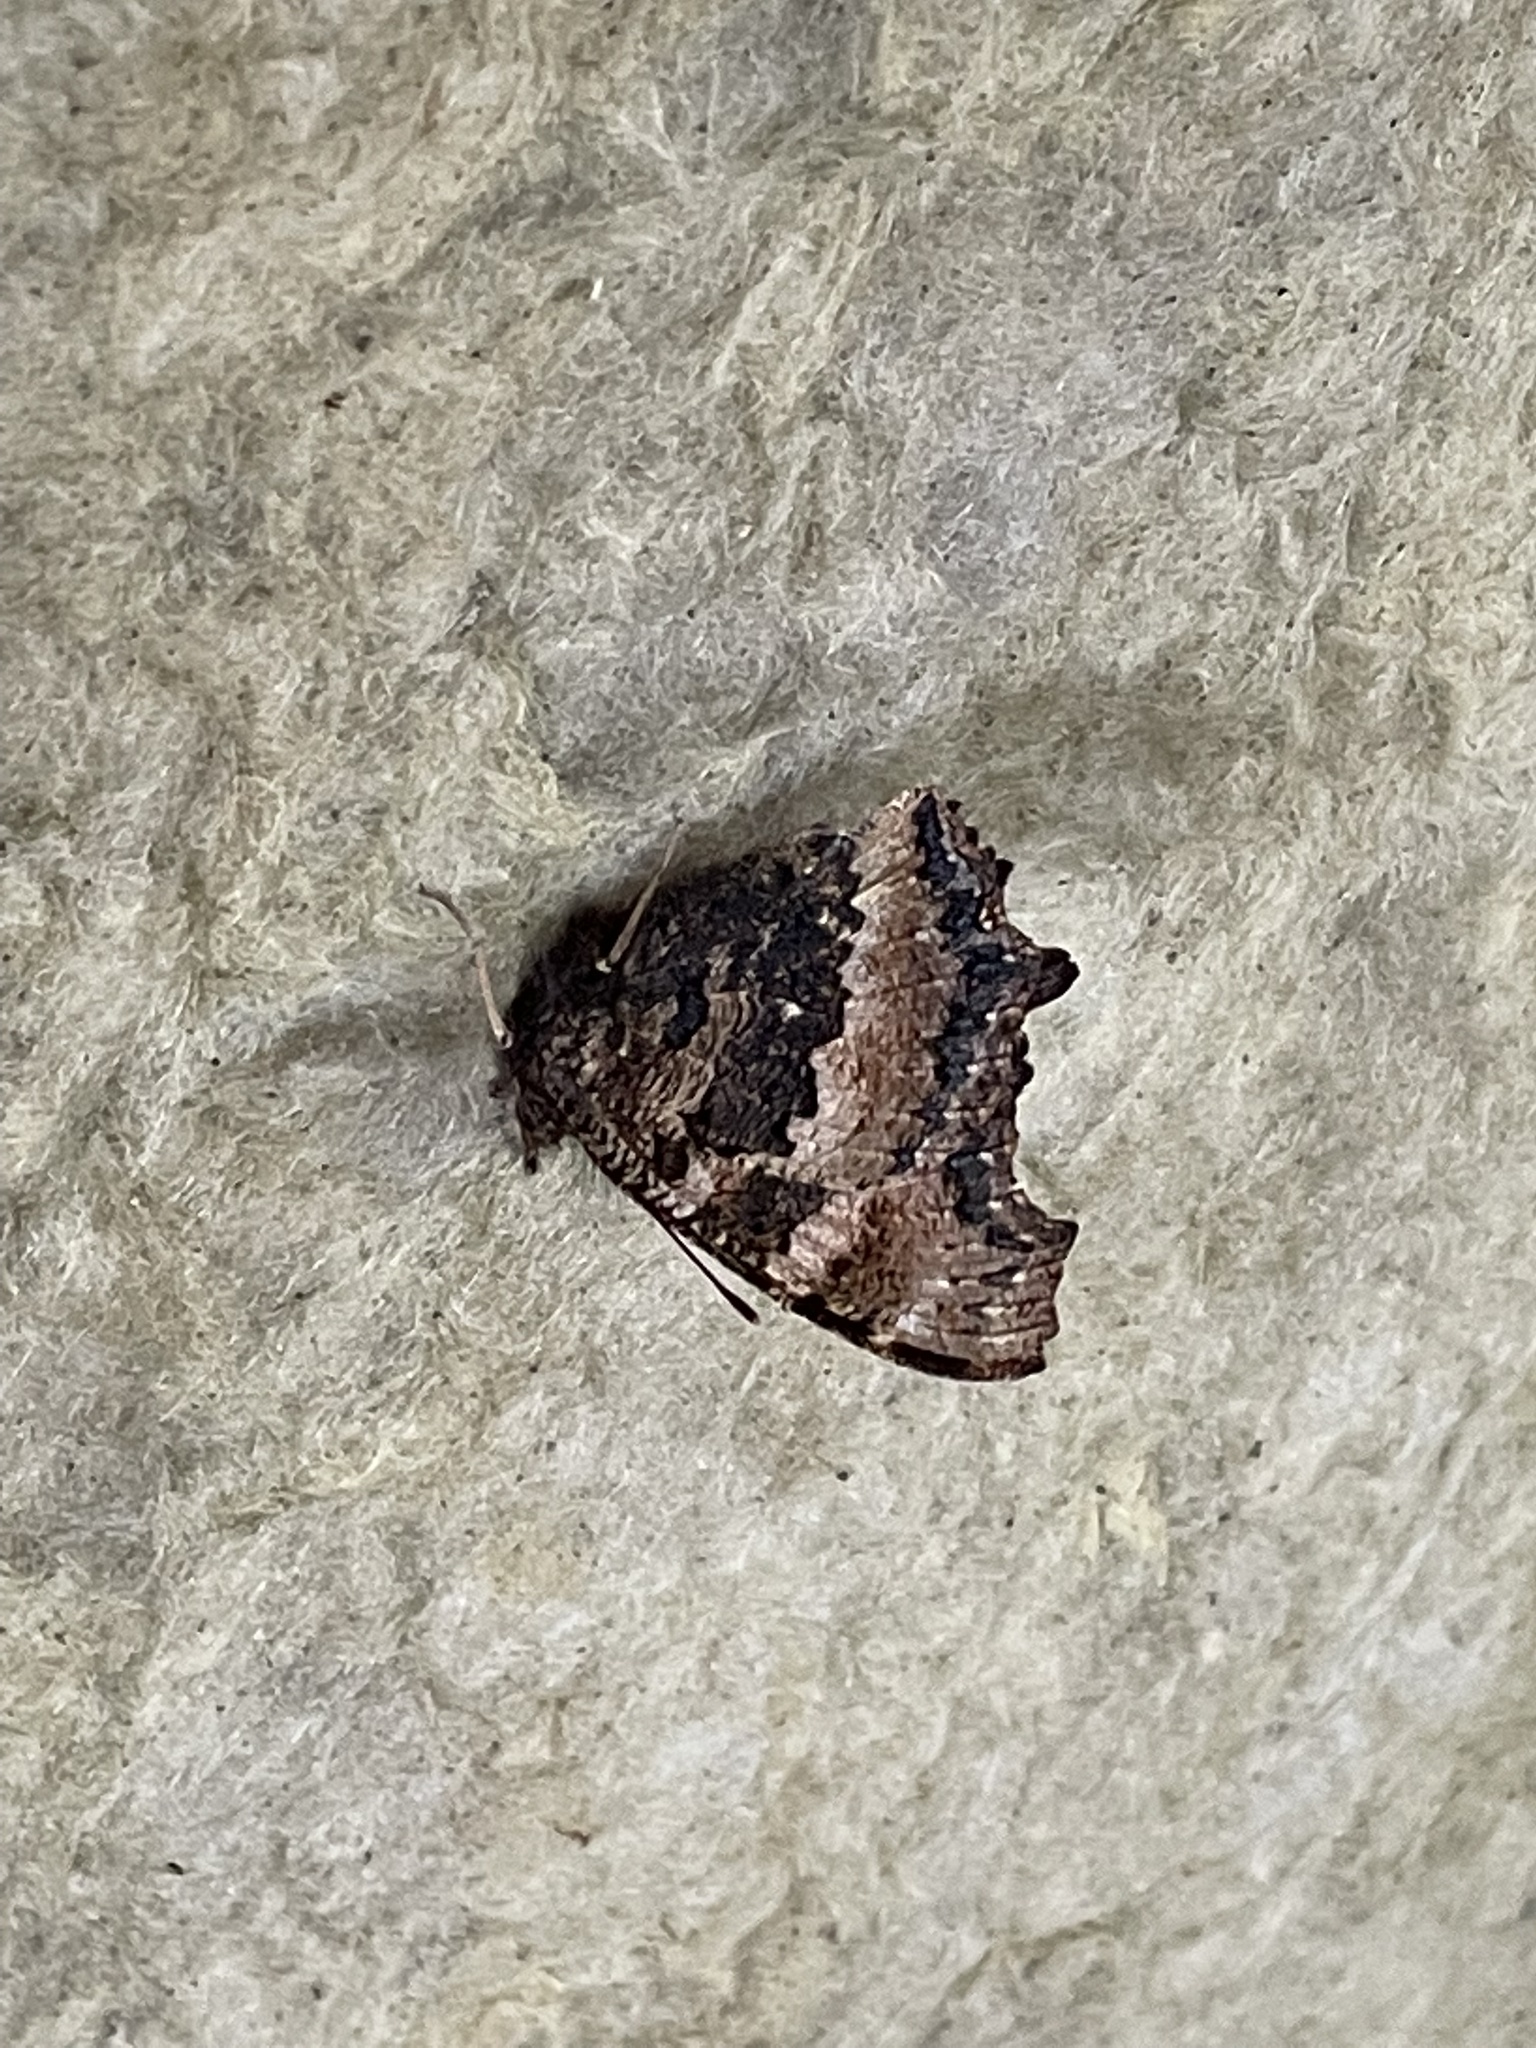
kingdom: Animalia
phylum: Arthropoda
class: Insecta
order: Lepidoptera
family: Nymphalidae
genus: Nymphalis
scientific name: Nymphalis xanthomelas
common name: Scarce tortoiseshell
